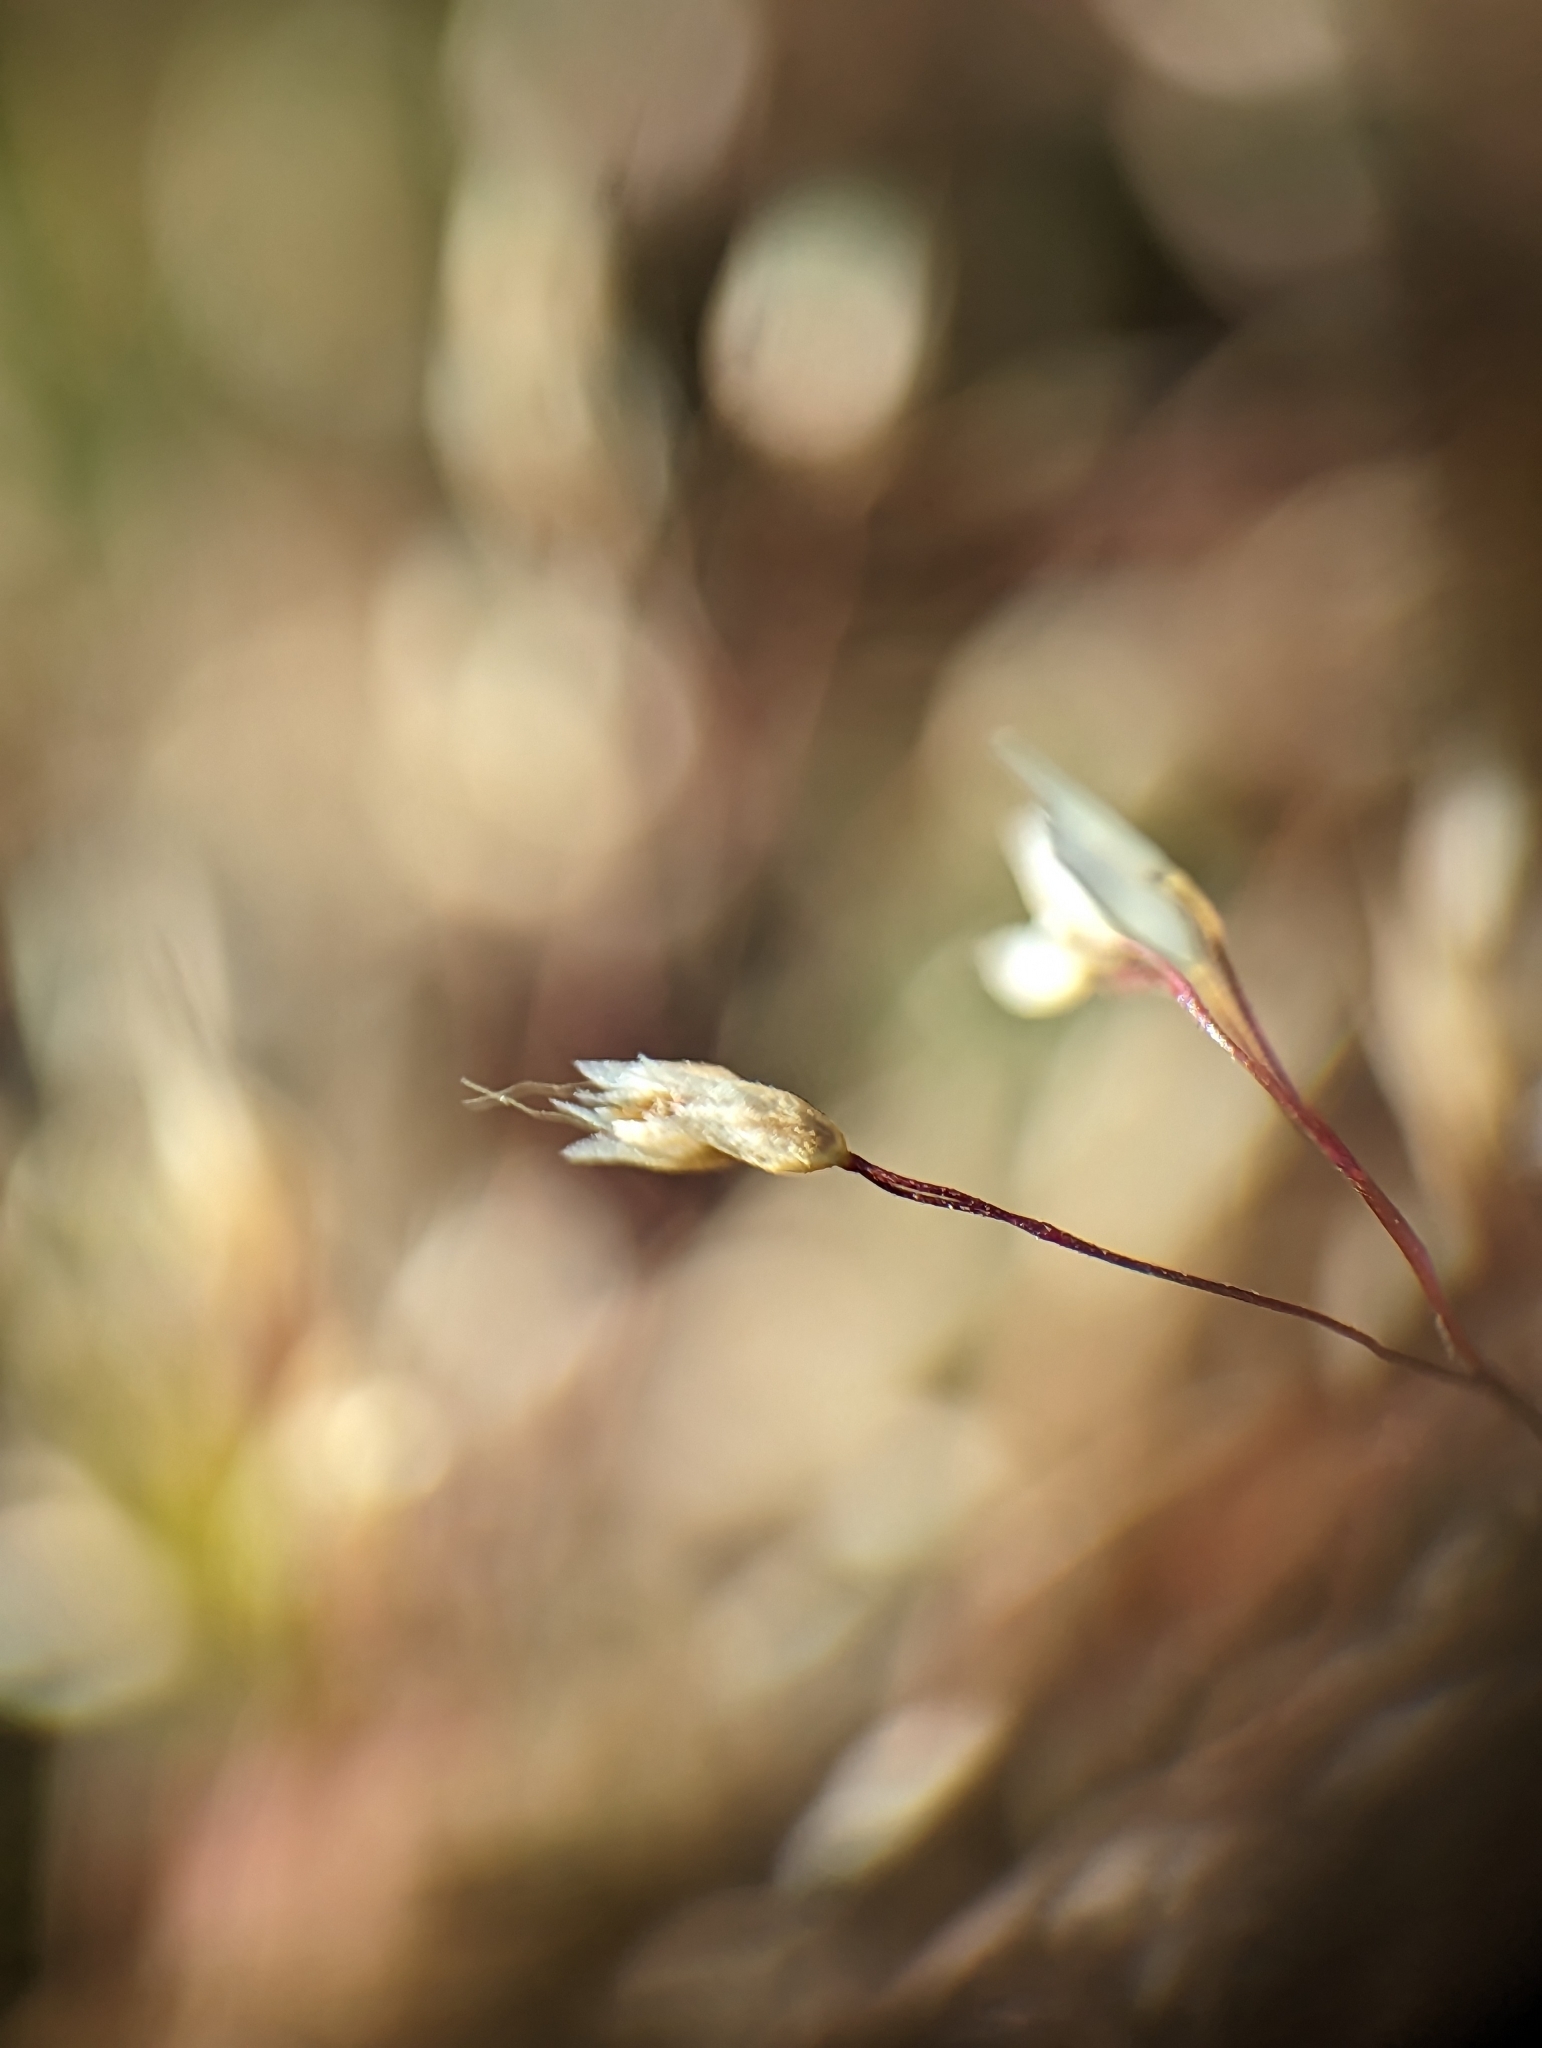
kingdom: Plantae
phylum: Tracheophyta
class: Liliopsida
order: Poales
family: Poaceae
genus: Aira
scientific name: Aira caryophyllea
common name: Silver hairgrass
